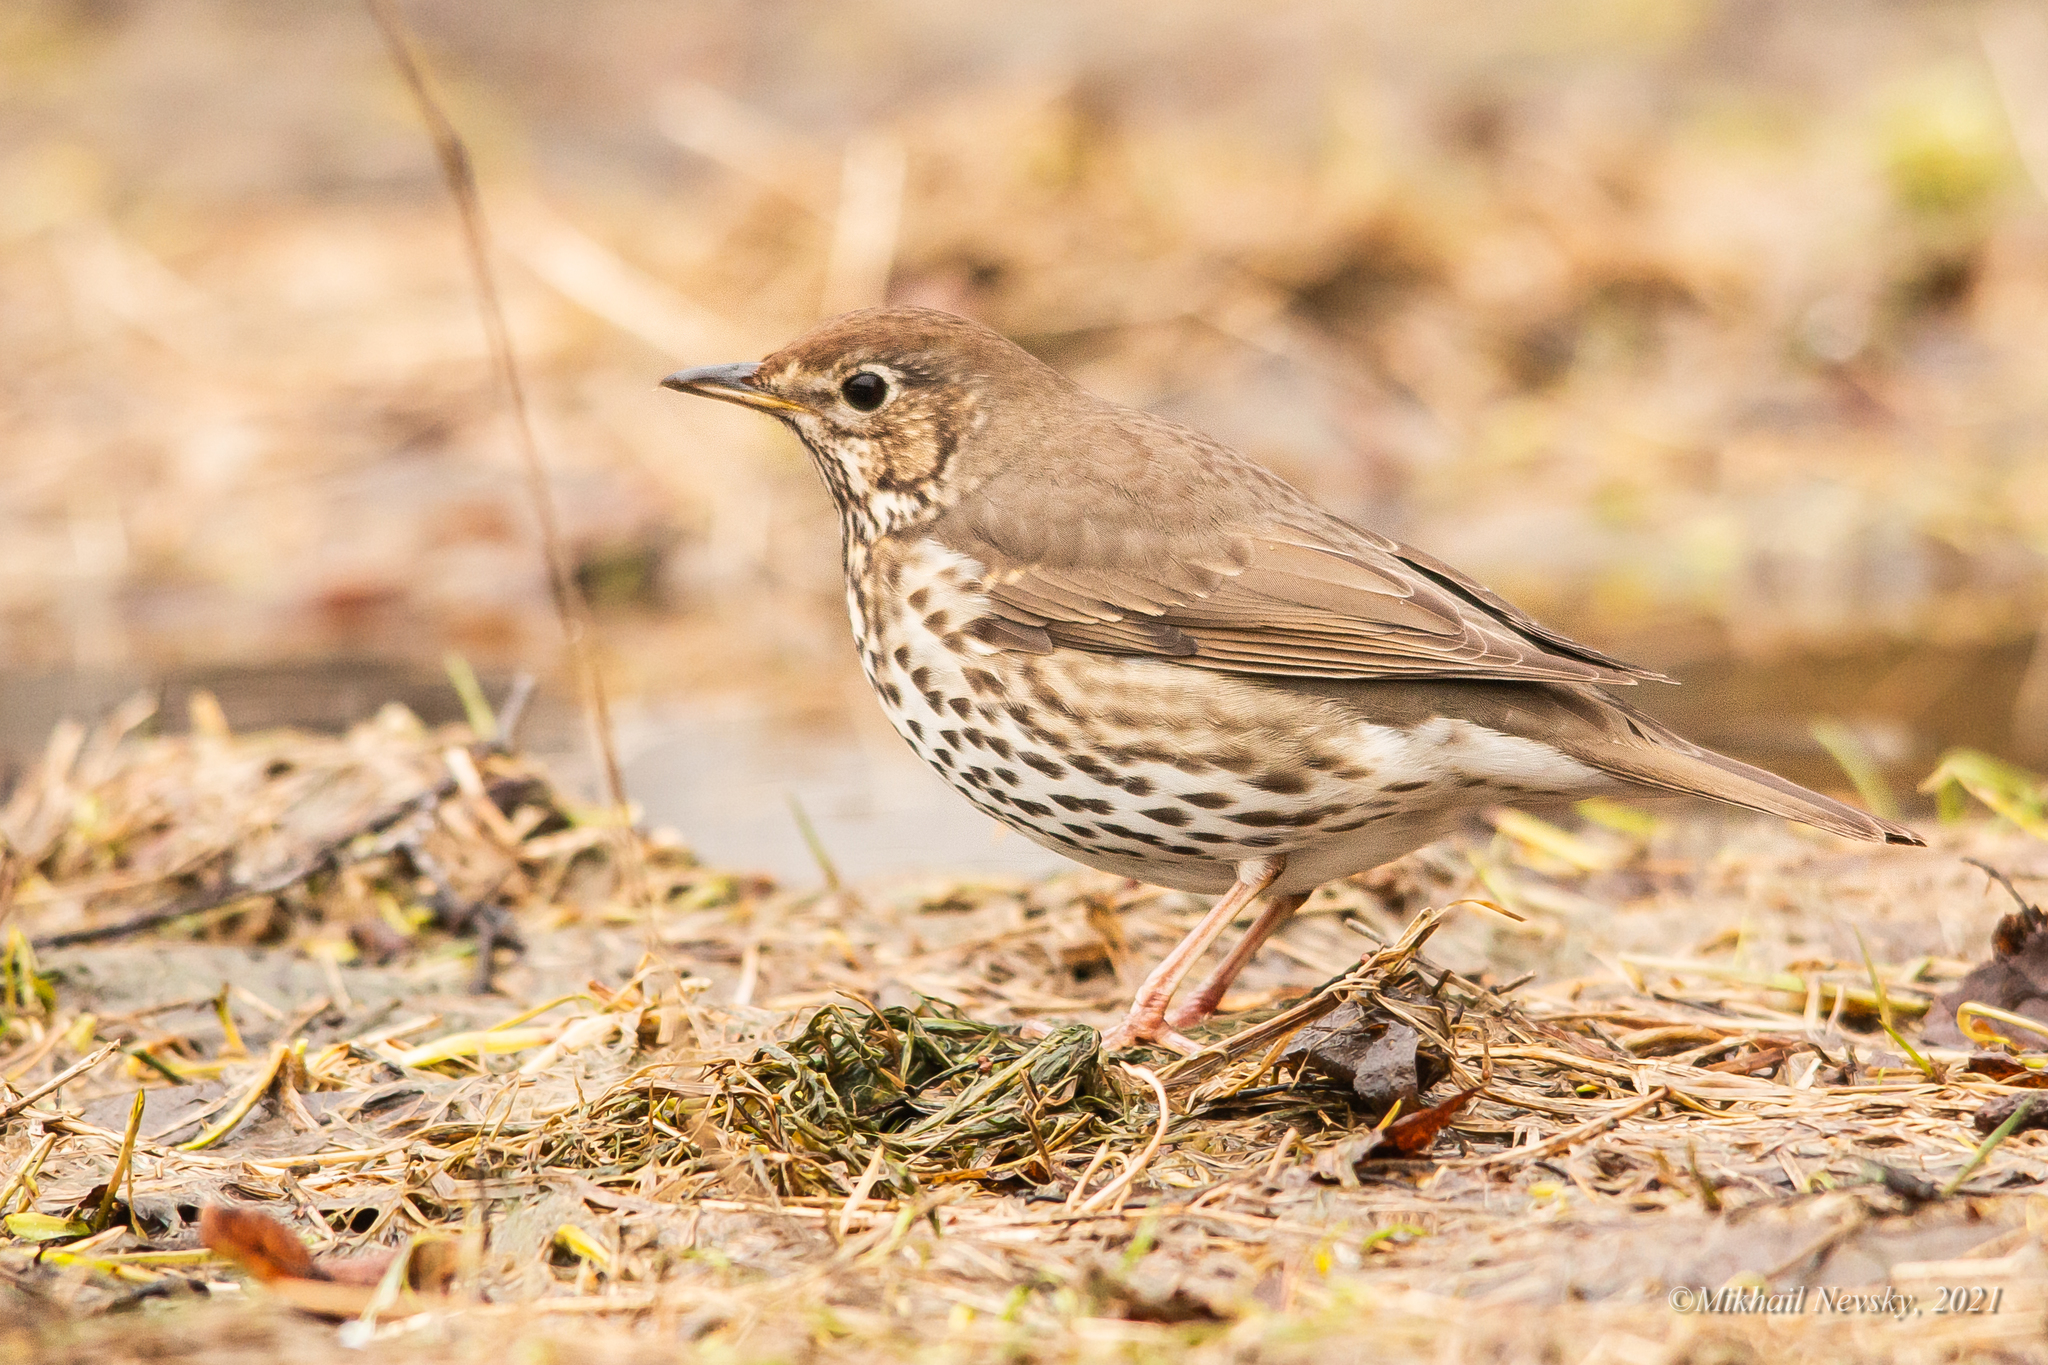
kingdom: Animalia
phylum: Chordata
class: Aves
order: Passeriformes
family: Turdidae
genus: Turdus
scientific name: Turdus philomelos
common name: Song thrush
